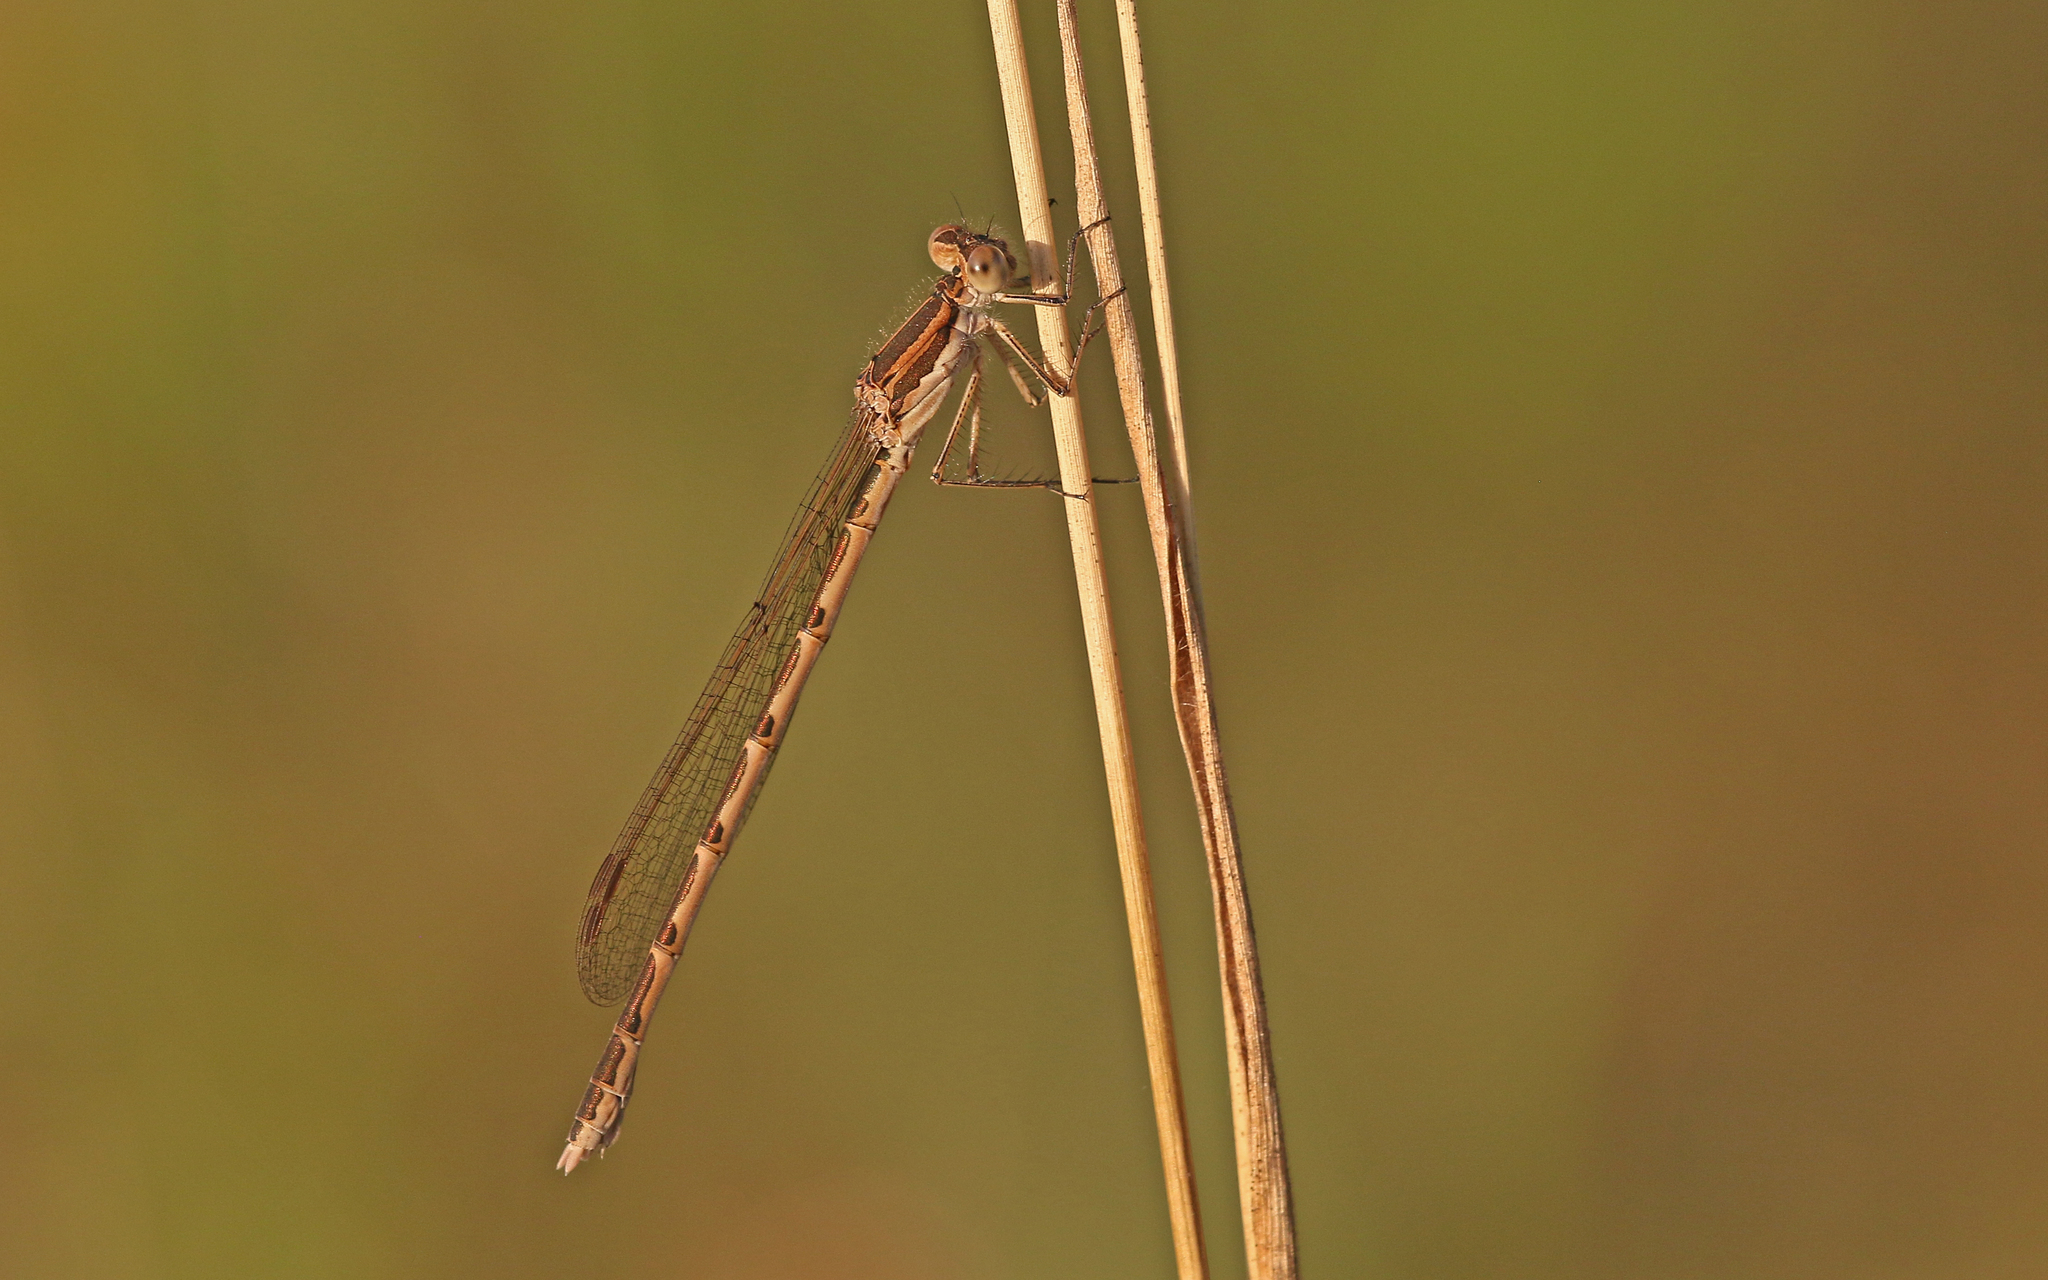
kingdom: Animalia
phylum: Arthropoda
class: Insecta
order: Odonata
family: Lestidae
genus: Sympecma
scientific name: Sympecma fusca
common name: Common winter damsel
